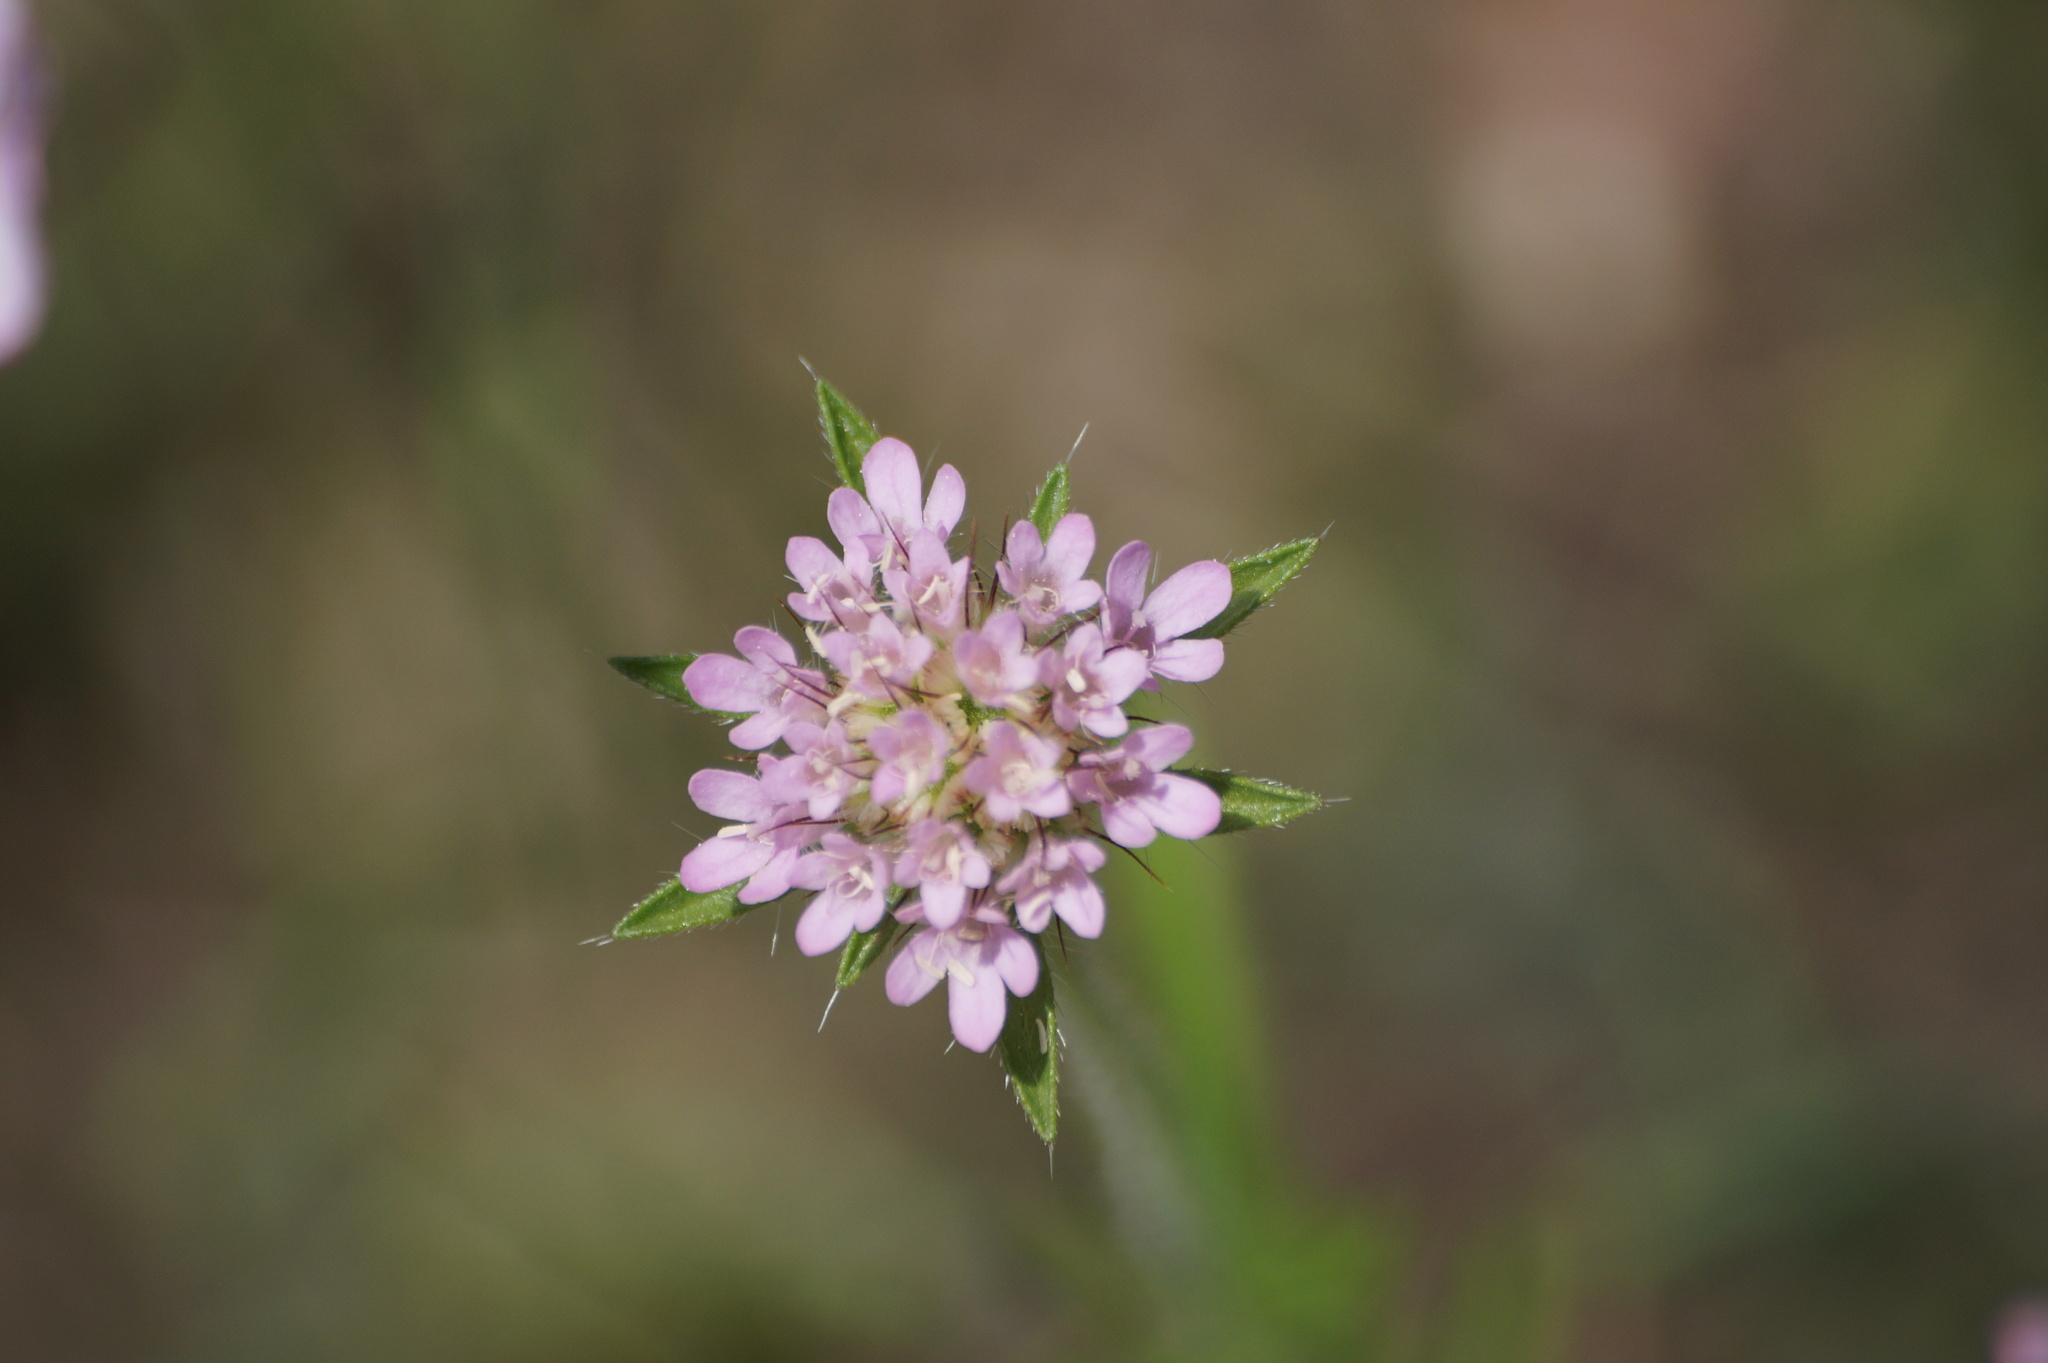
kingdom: Plantae
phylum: Tracheophyta
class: Magnoliopsida
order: Dipsacales
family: Caprifoliaceae
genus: Lomelosia
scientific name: Lomelosia micrantha
